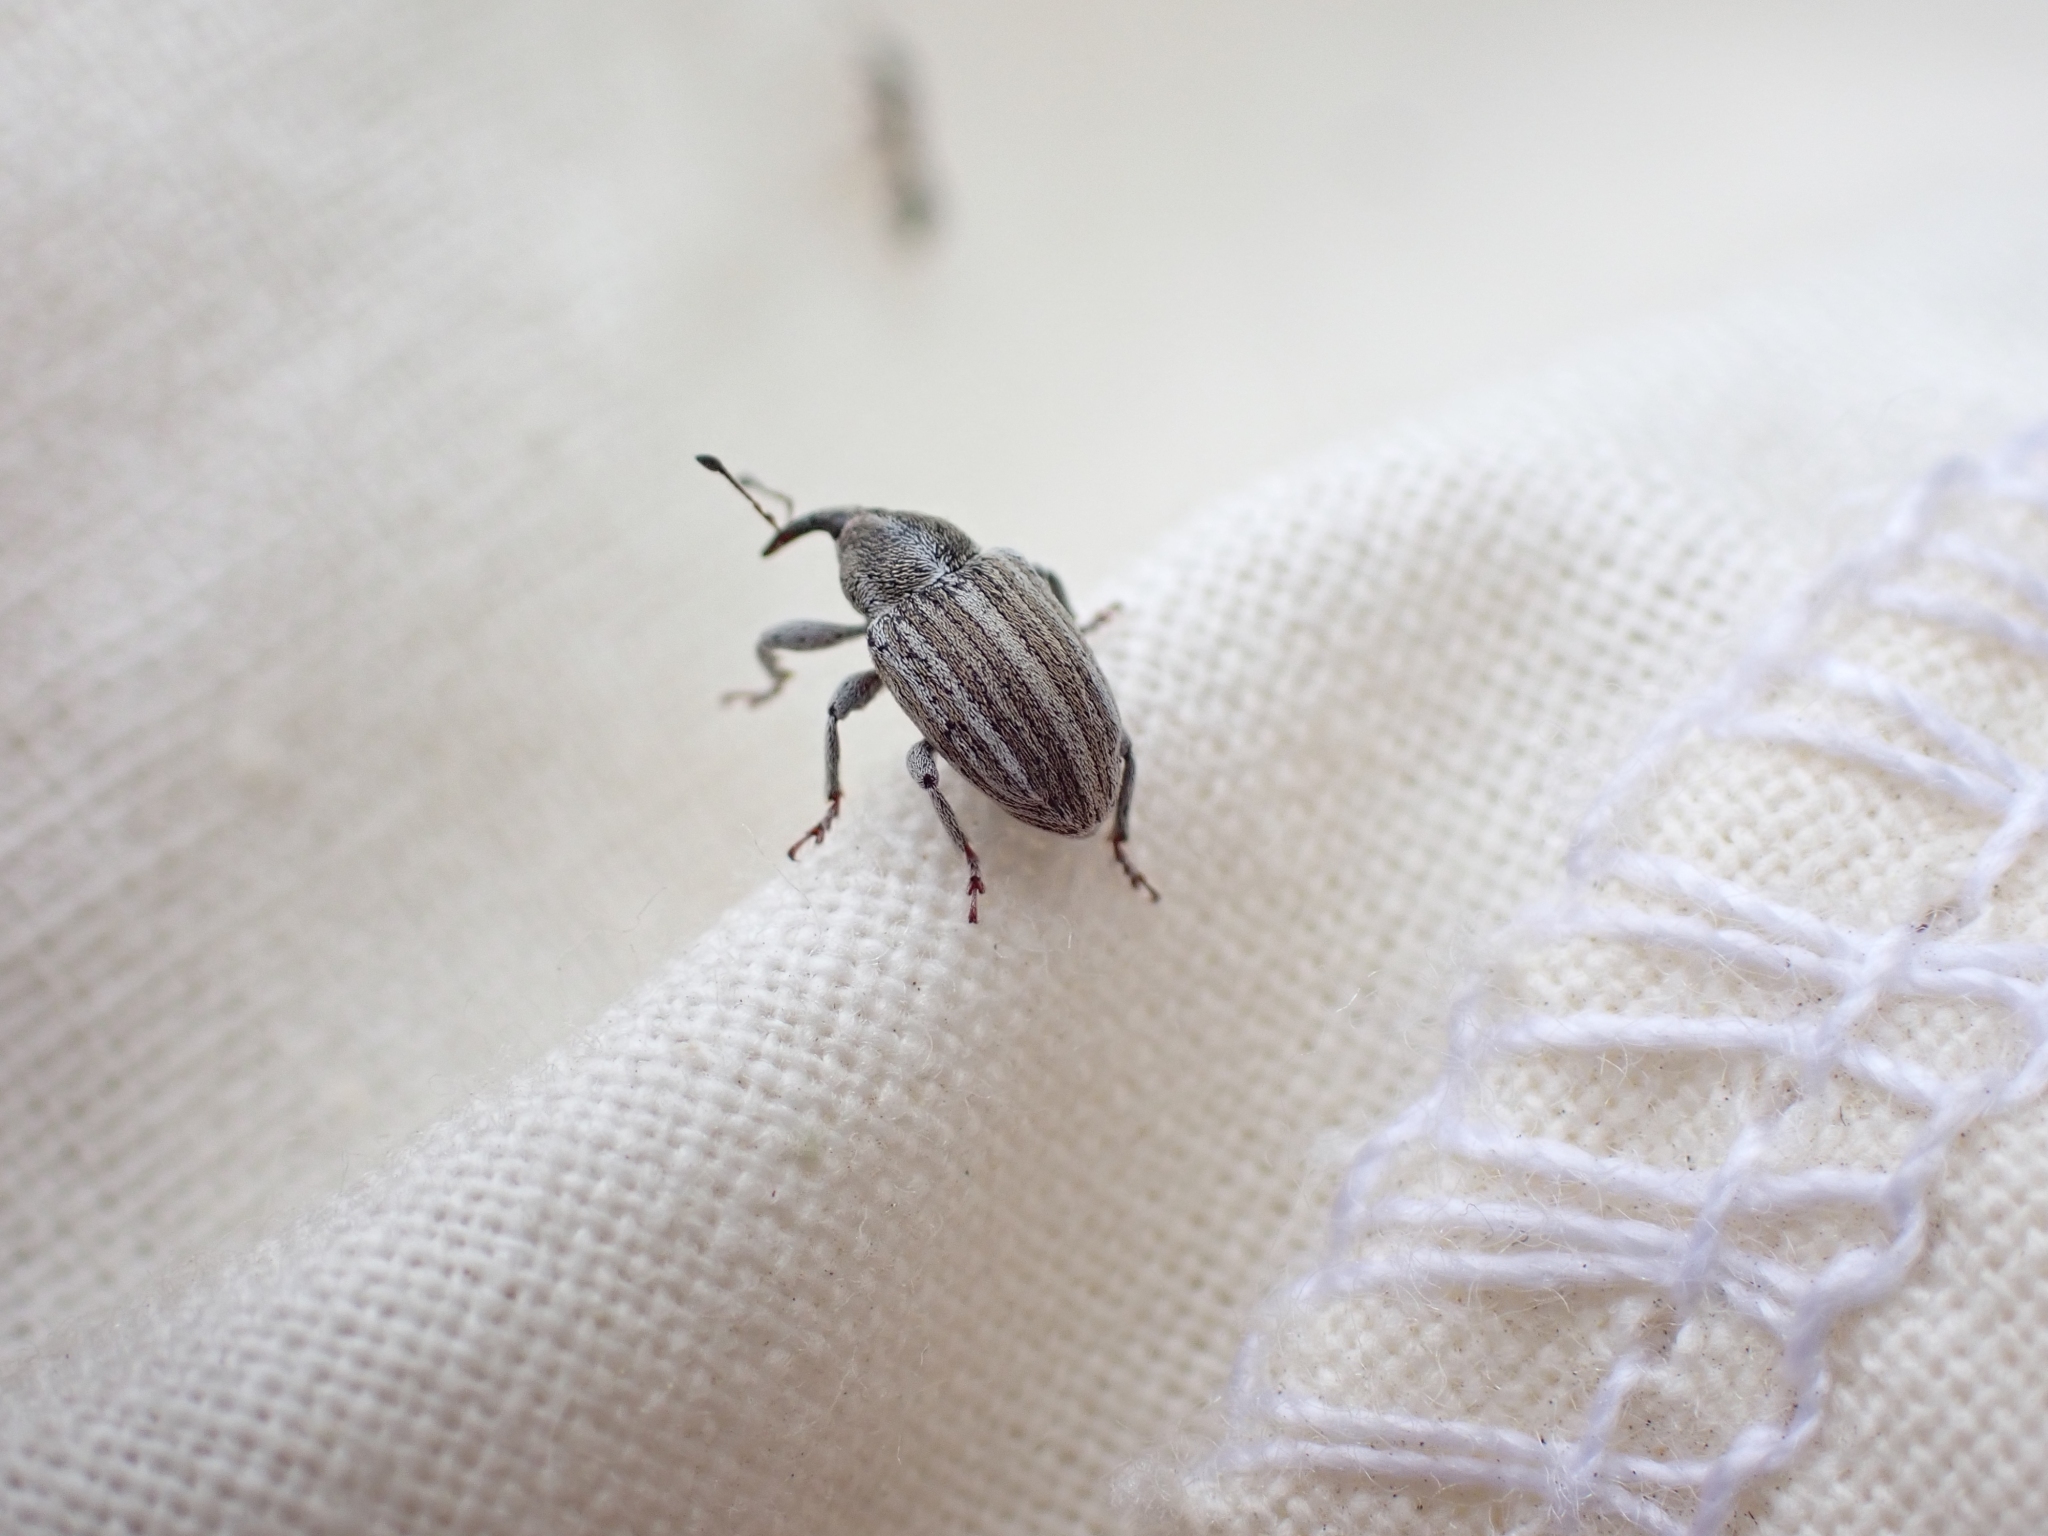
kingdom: Animalia
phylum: Arthropoda
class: Insecta
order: Coleoptera
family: Curculionidae
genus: Tychius
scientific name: Tychius lineellus
